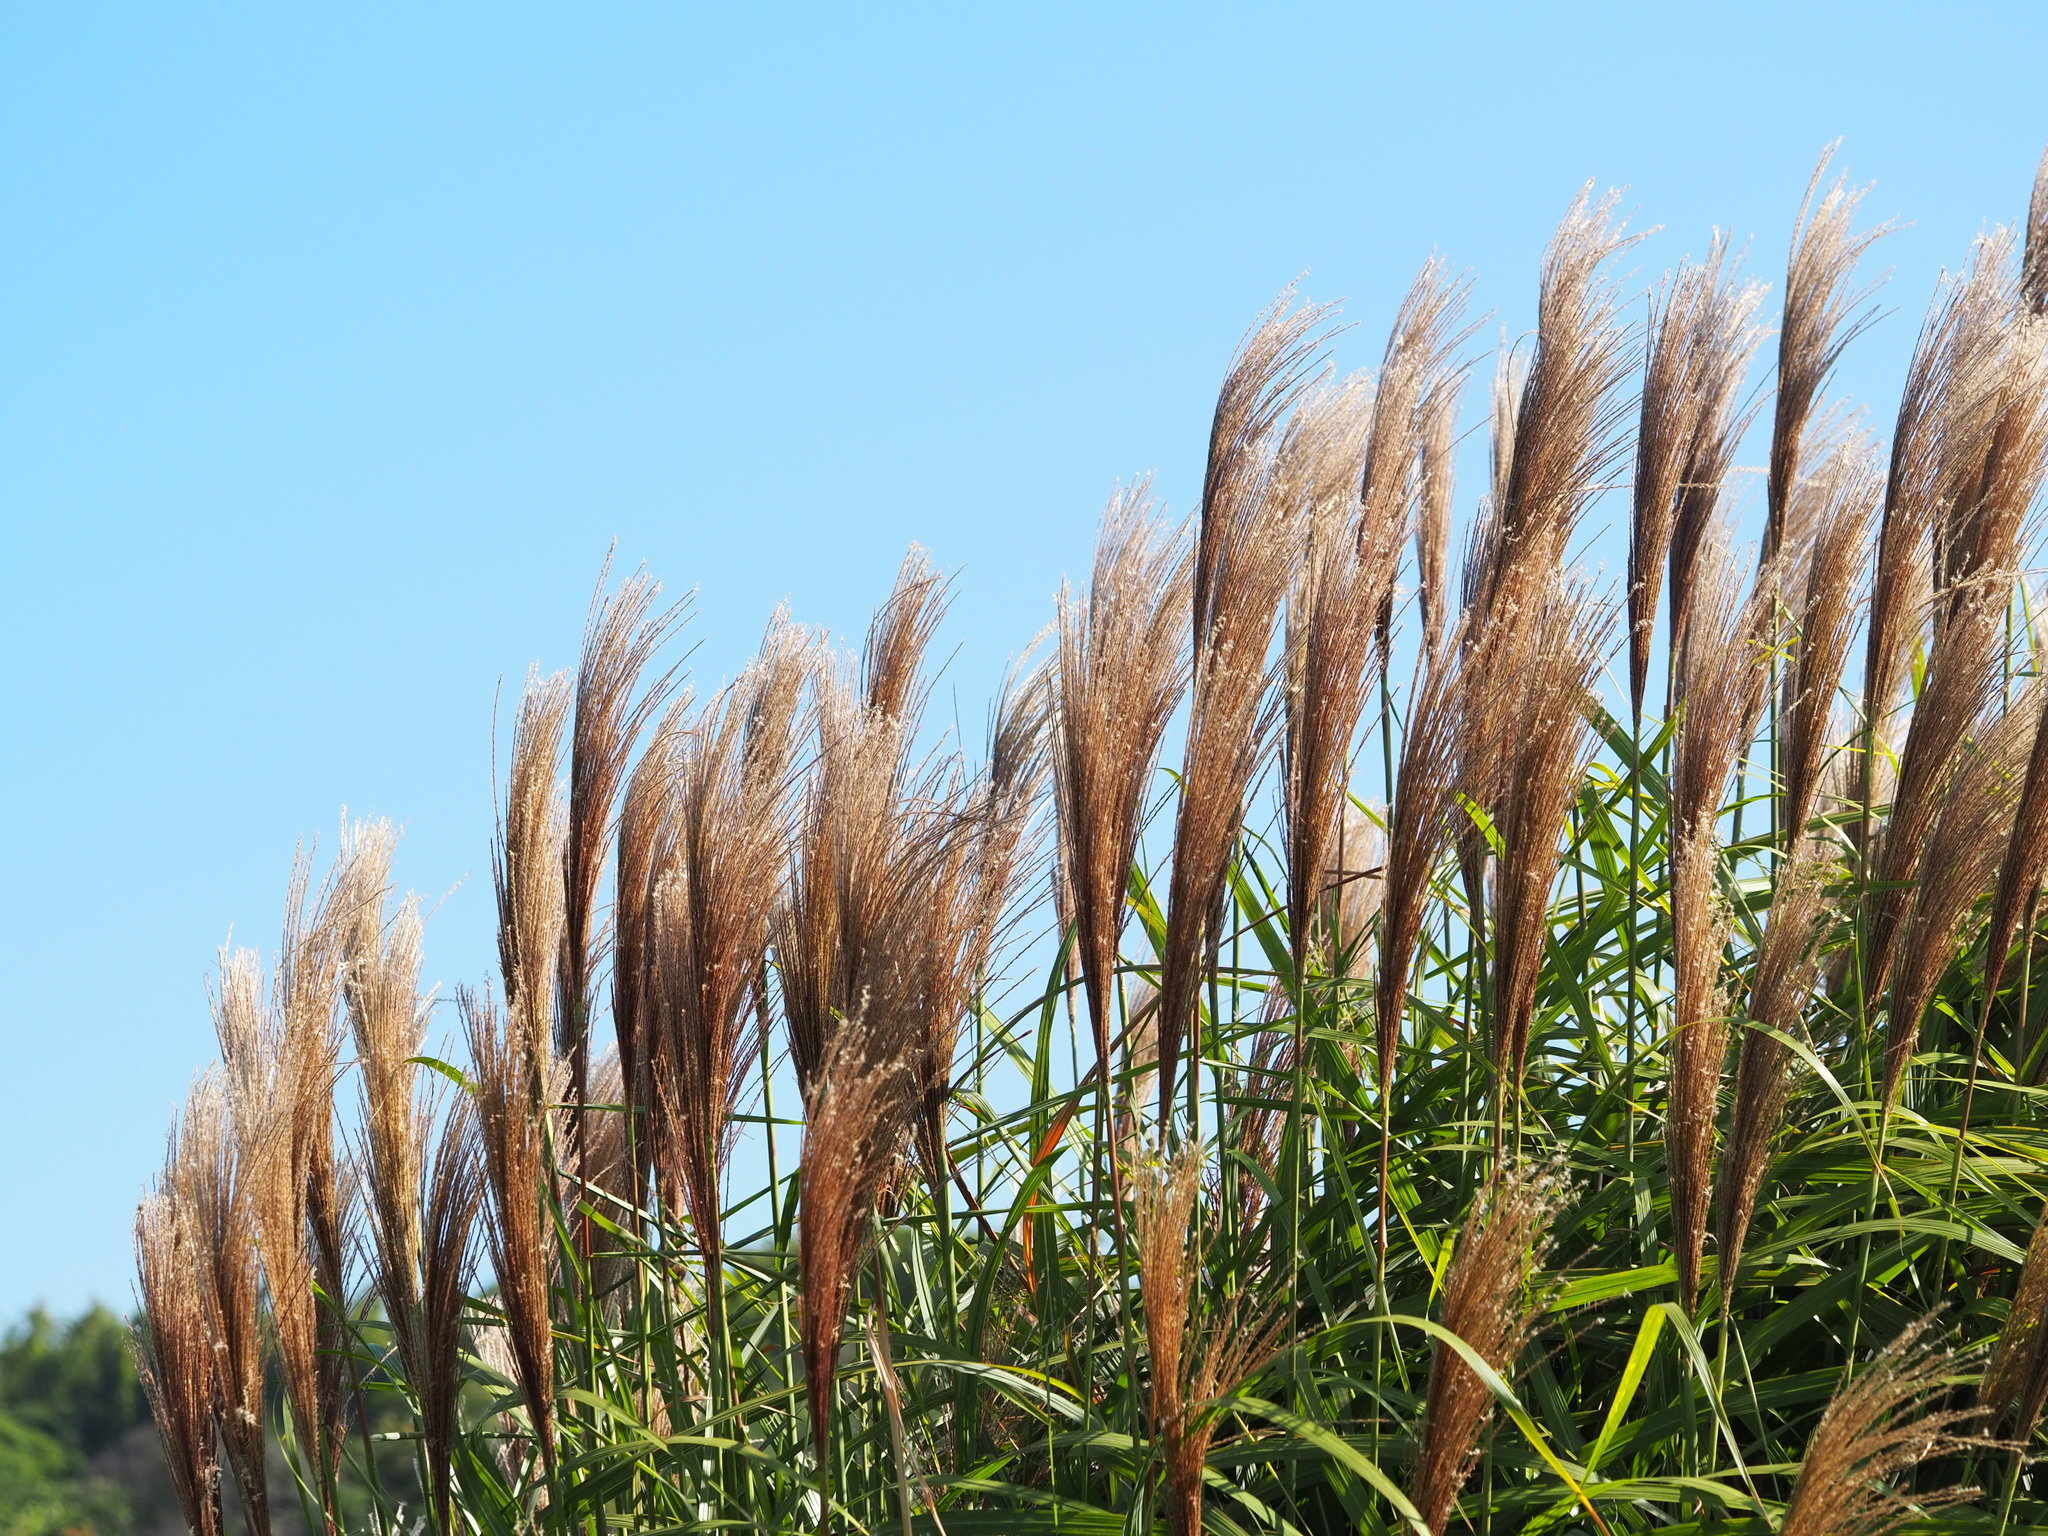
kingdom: Plantae
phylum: Tracheophyta
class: Liliopsida
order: Poales
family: Poaceae
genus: Miscanthus
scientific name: Miscanthus sinensis
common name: Chinese silvergrass
